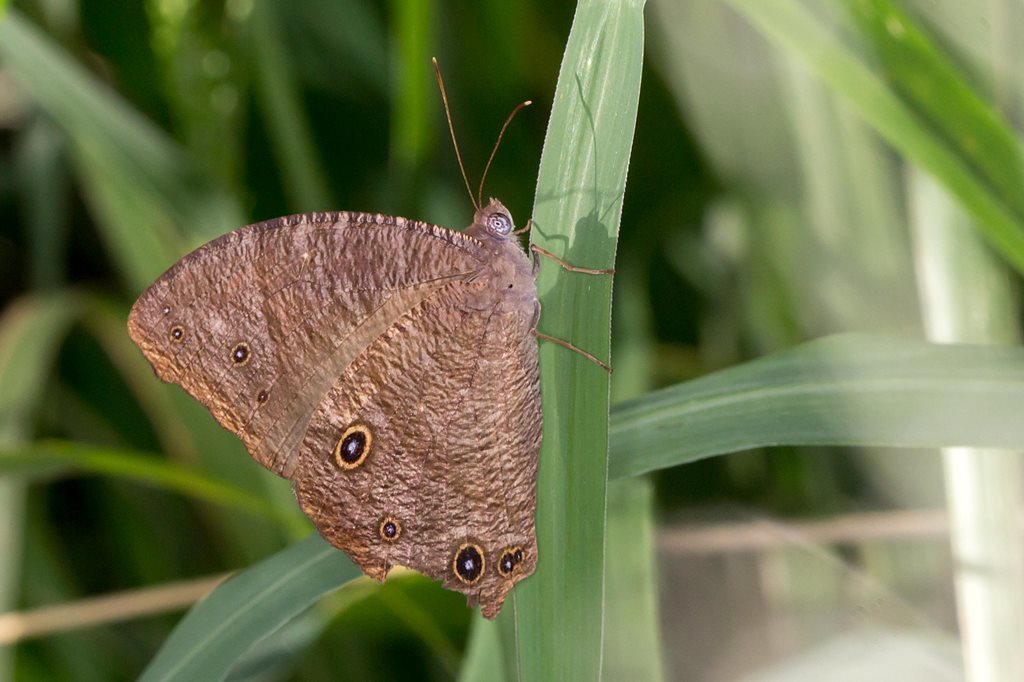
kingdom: Animalia
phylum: Arthropoda
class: Insecta
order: Lepidoptera
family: Nymphalidae
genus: Melanitis
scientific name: Melanitis leda
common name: Twilight brown
